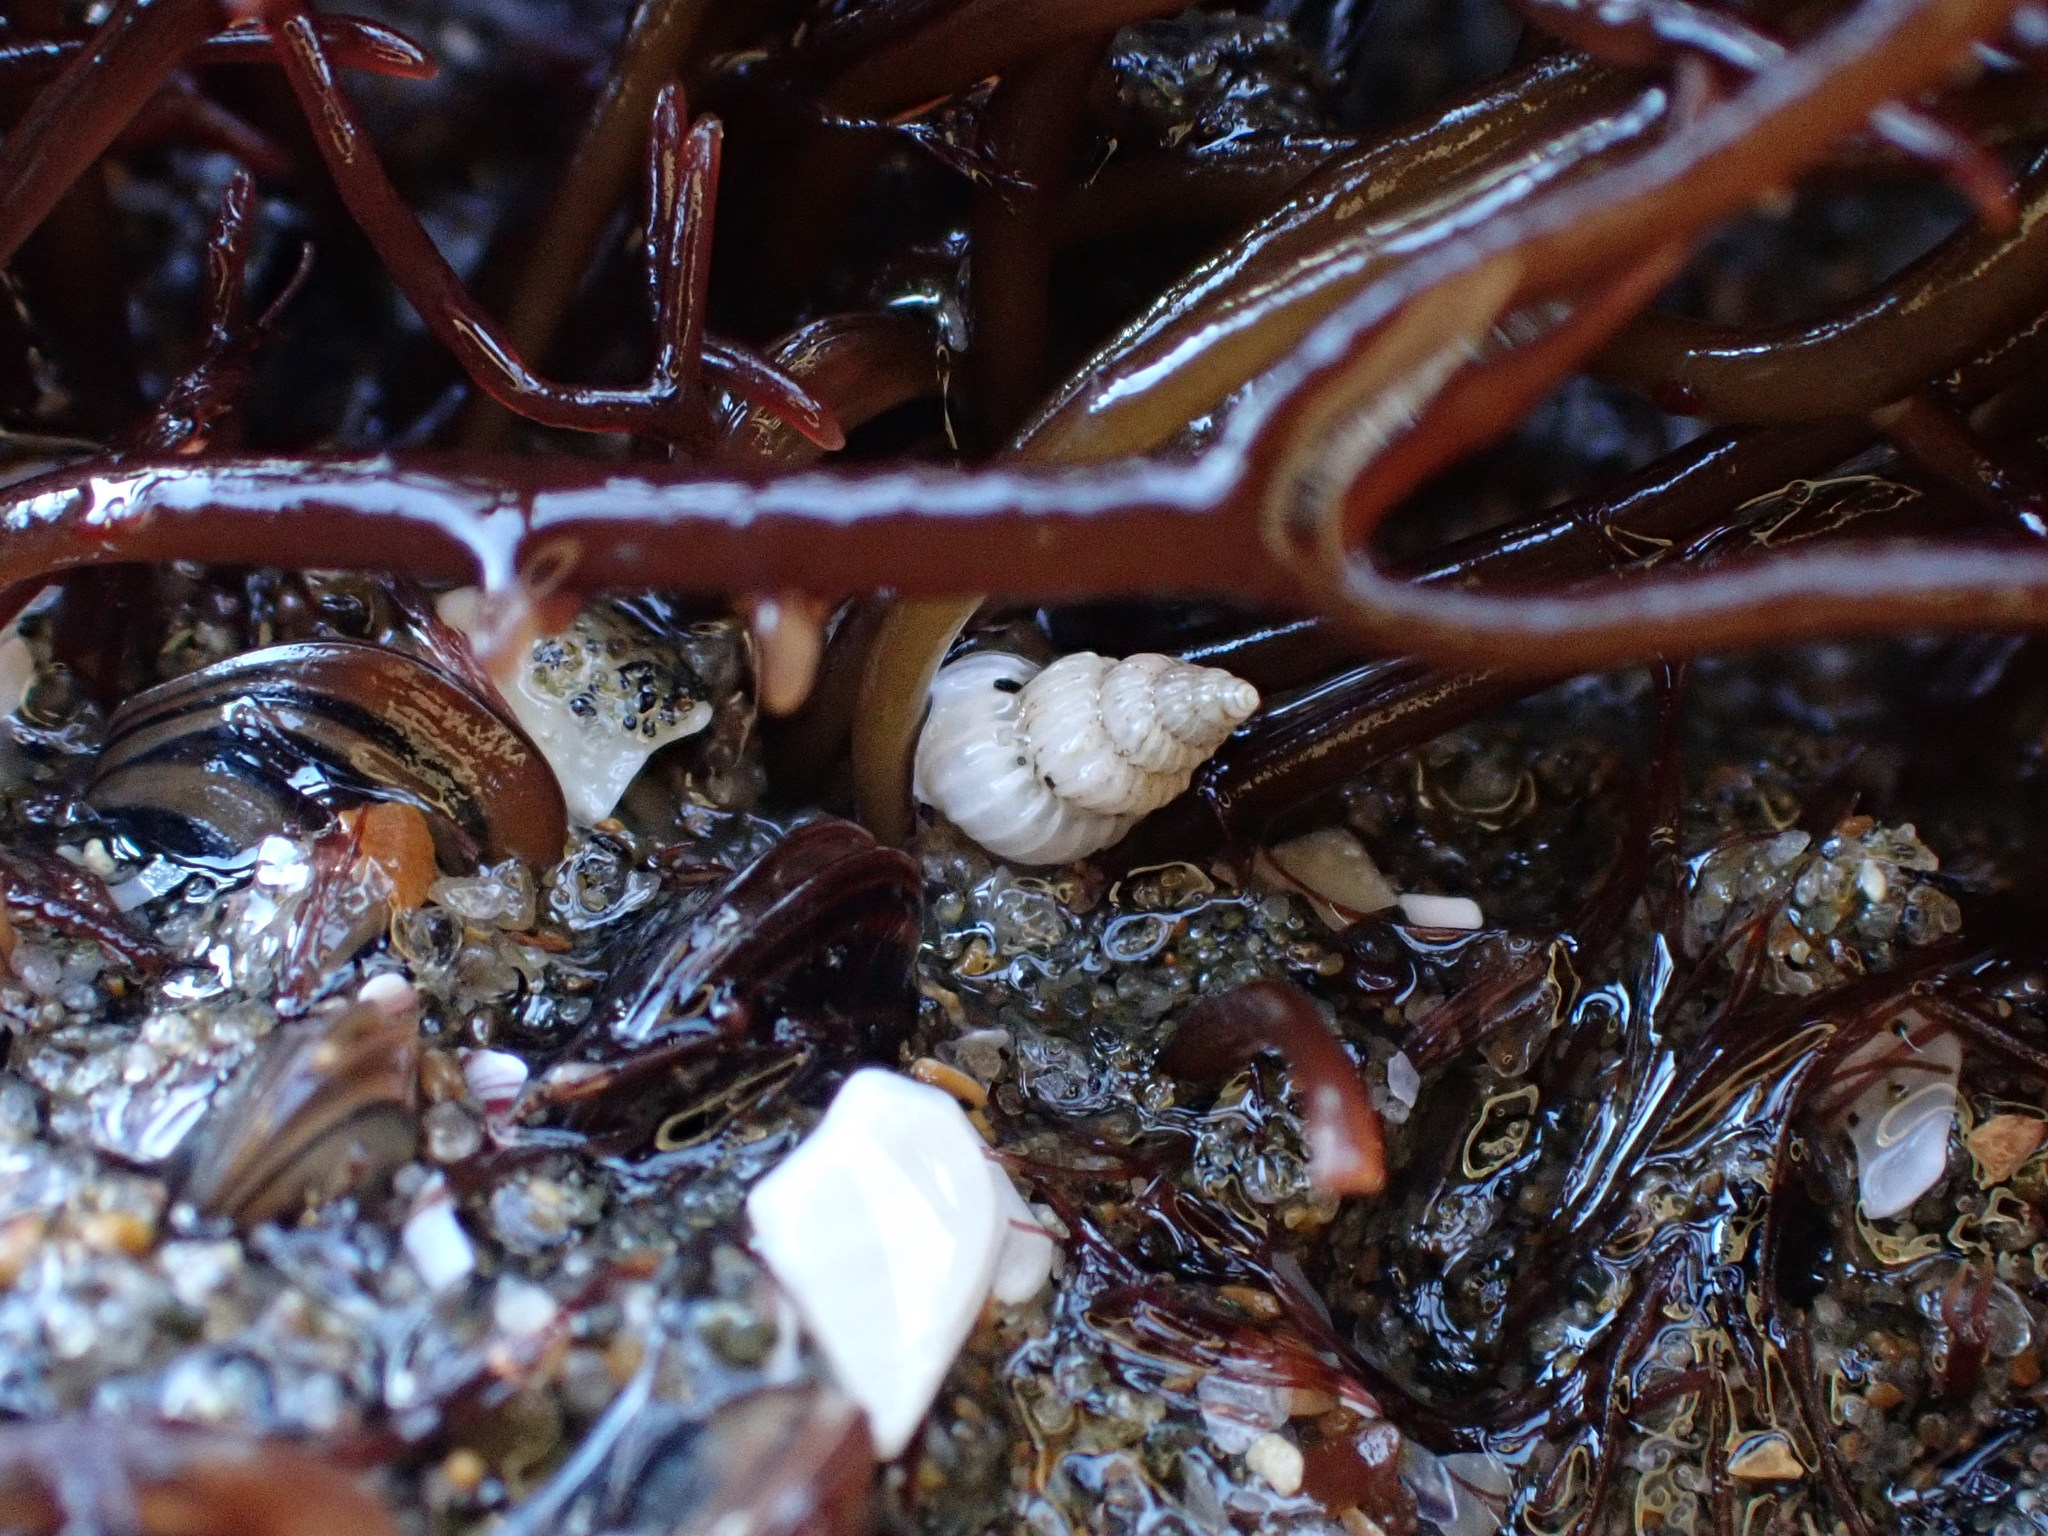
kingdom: Animalia
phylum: Mollusca
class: Gastropoda
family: Epitoniidae
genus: Epitonium
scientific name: Epitonium jukesianum
